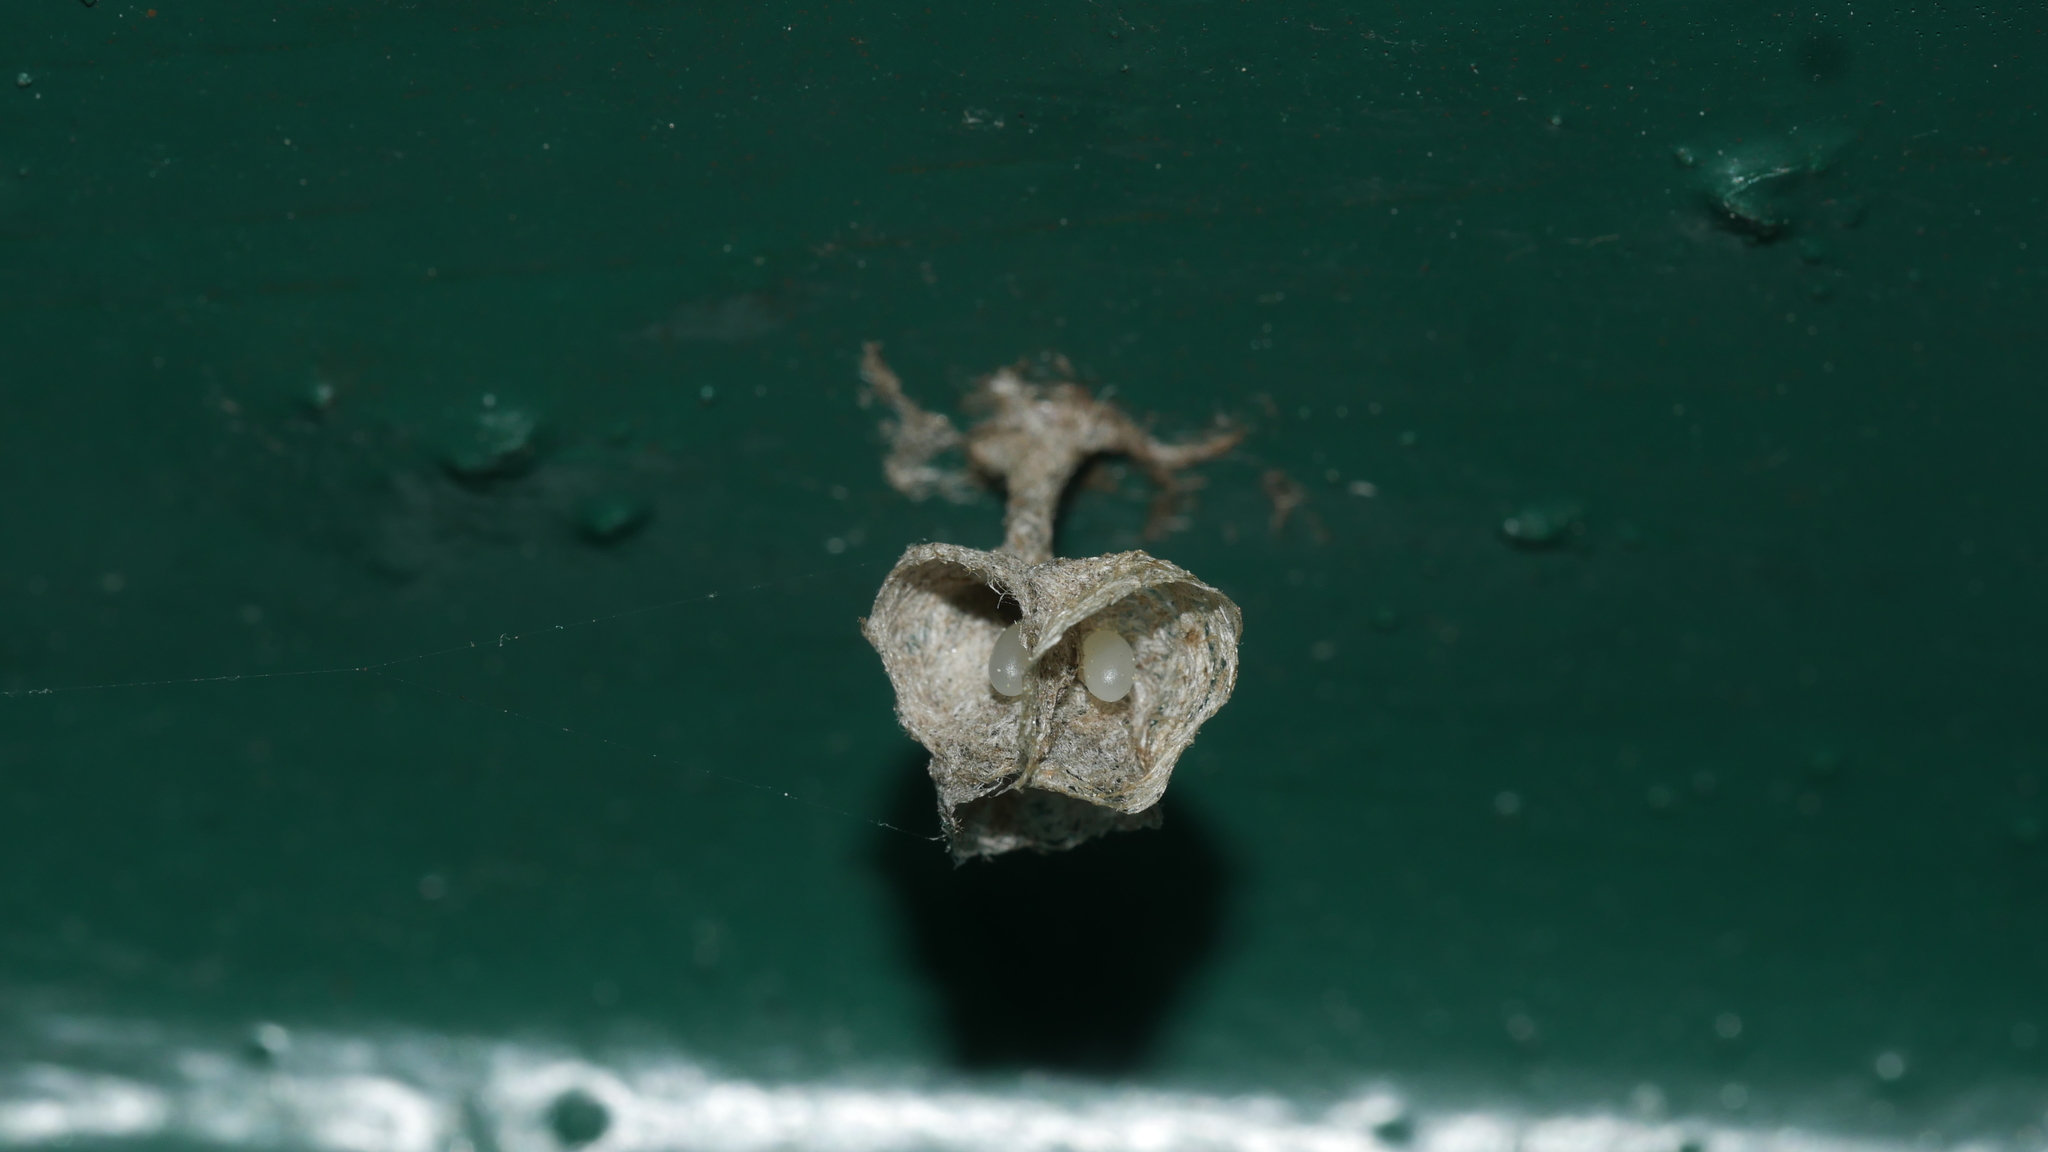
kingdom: Animalia
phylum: Arthropoda
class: Insecta
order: Hymenoptera
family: Eumenidae
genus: Polistes
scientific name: Polistes
